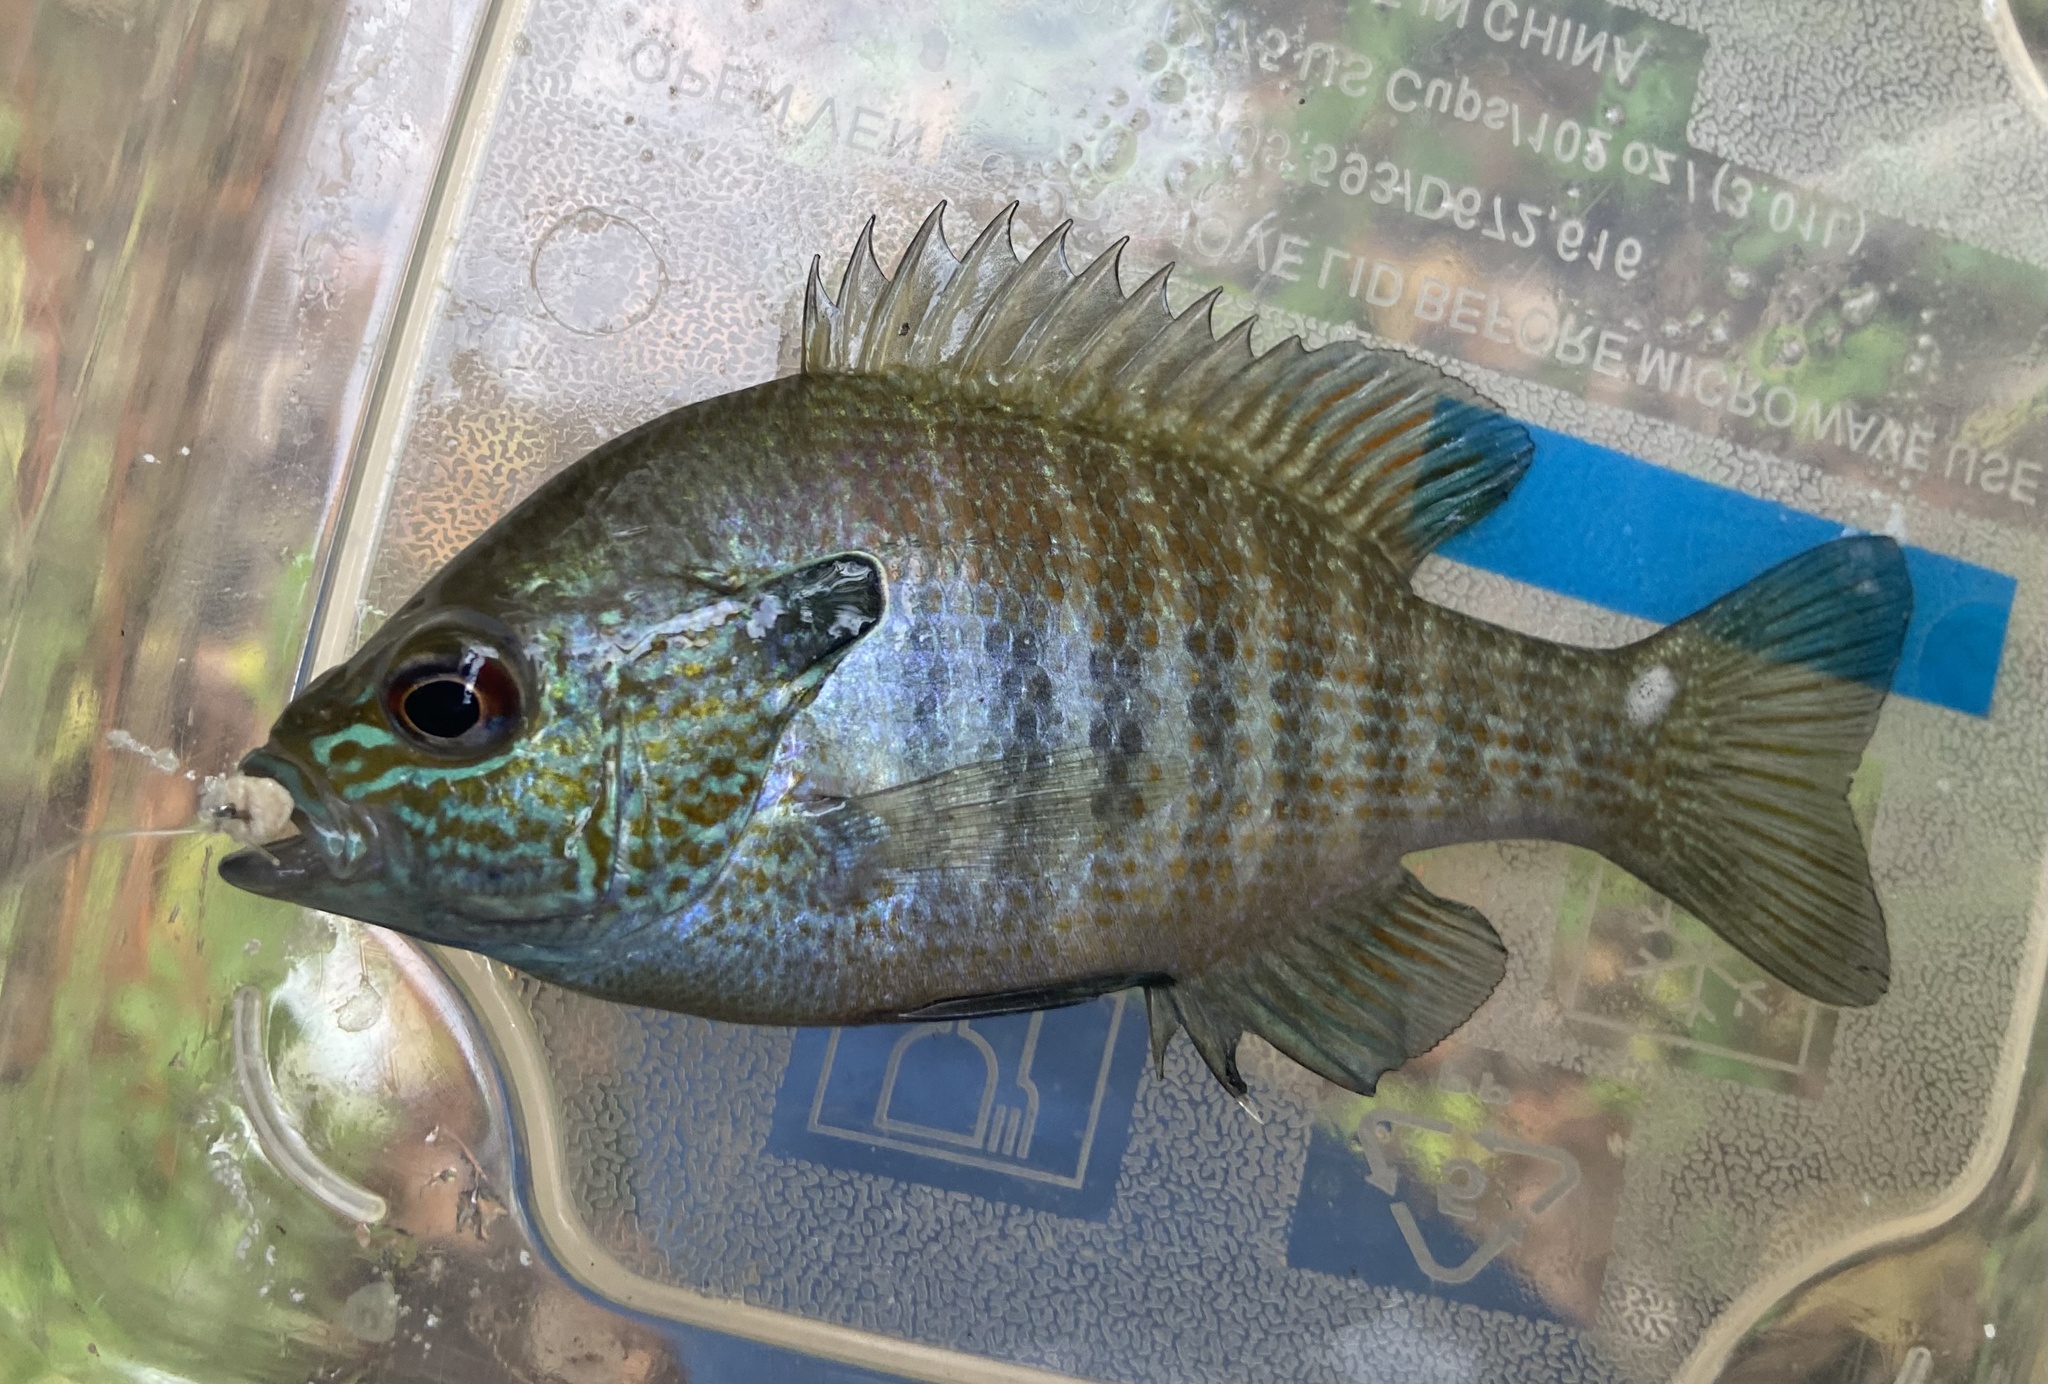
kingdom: Animalia
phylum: Chordata
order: Perciformes
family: Centrarchidae
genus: Lepomis
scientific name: Lepomis aquilensis
